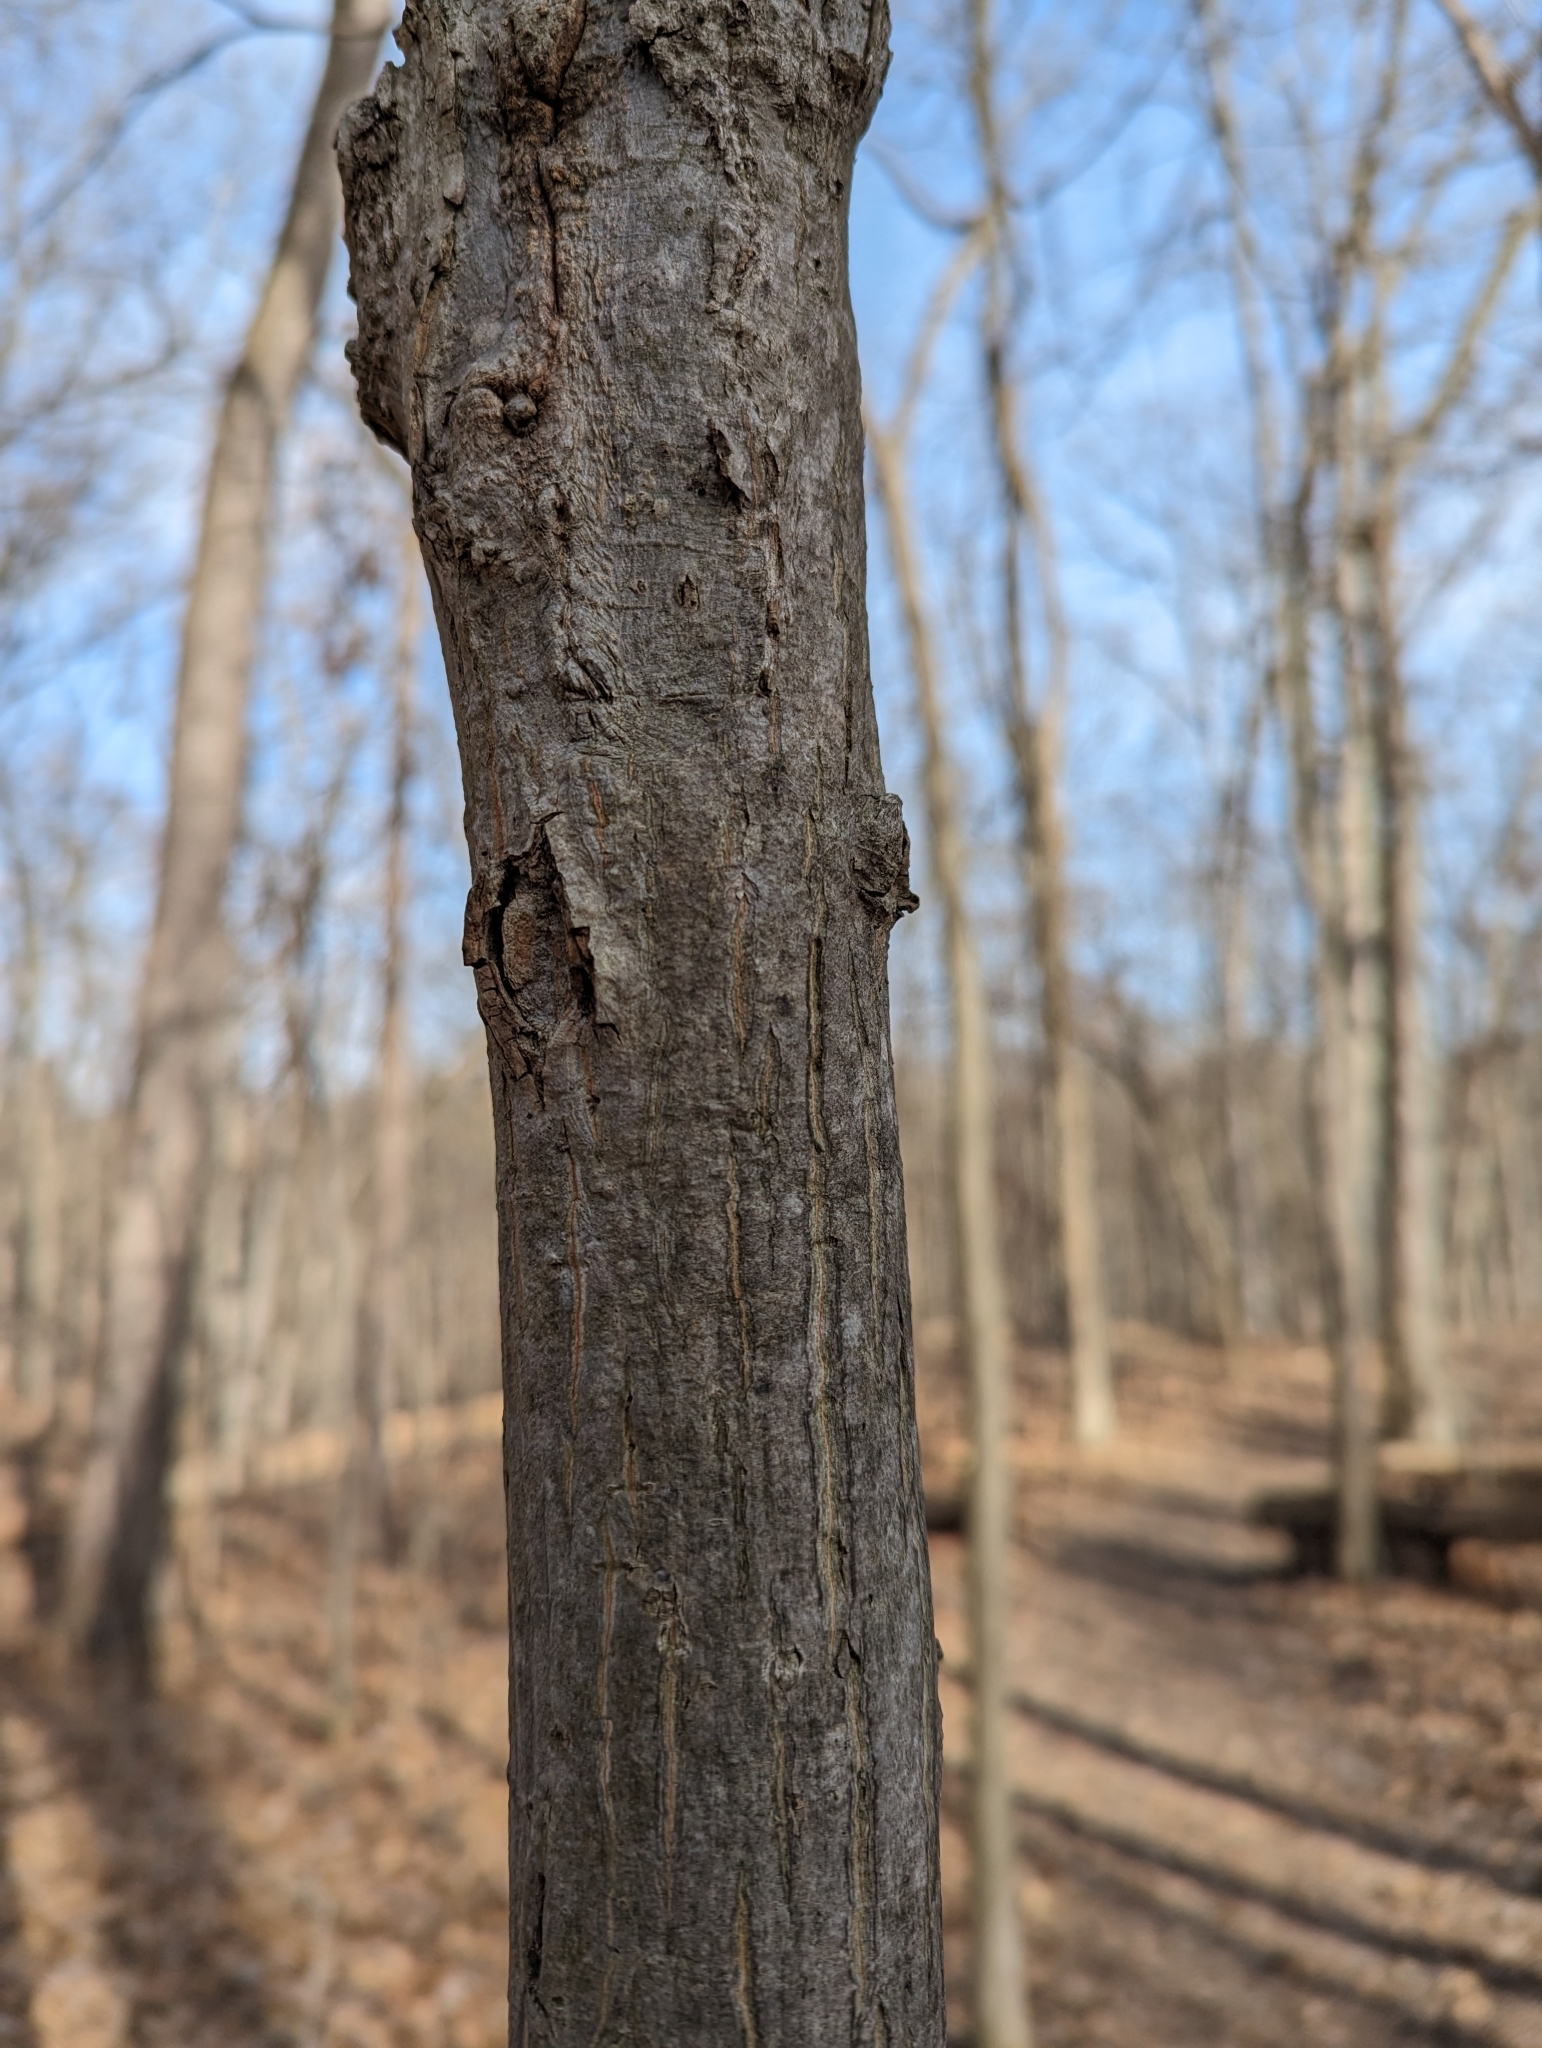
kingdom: Plantae
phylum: Tracheophyta
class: Magnoliopsida
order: Fagales
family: Juglandaceae
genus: Carya
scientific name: Carya cordiformis
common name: Bitternut hickory
